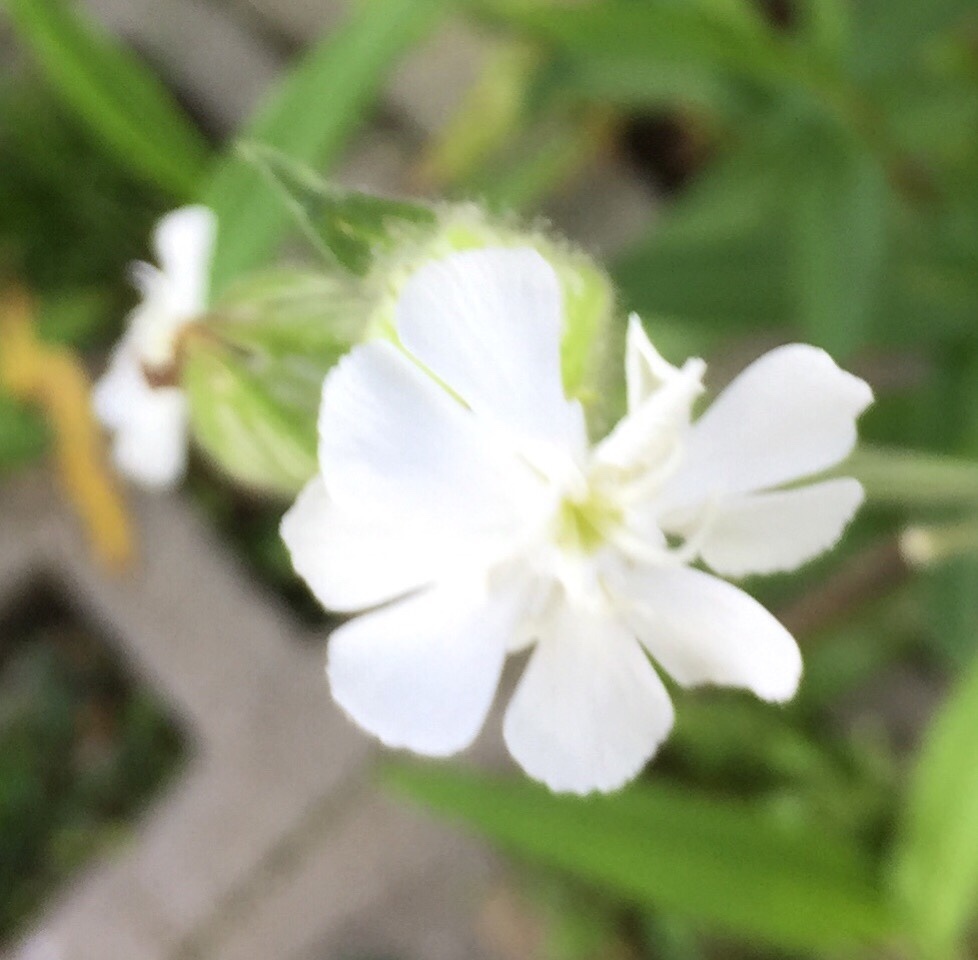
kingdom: Plantae
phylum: Tracheophyta
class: Magnoliopsida
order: Caryophyllales
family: Caryophyllaceae
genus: Silene
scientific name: Silene latifolia
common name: White campion
